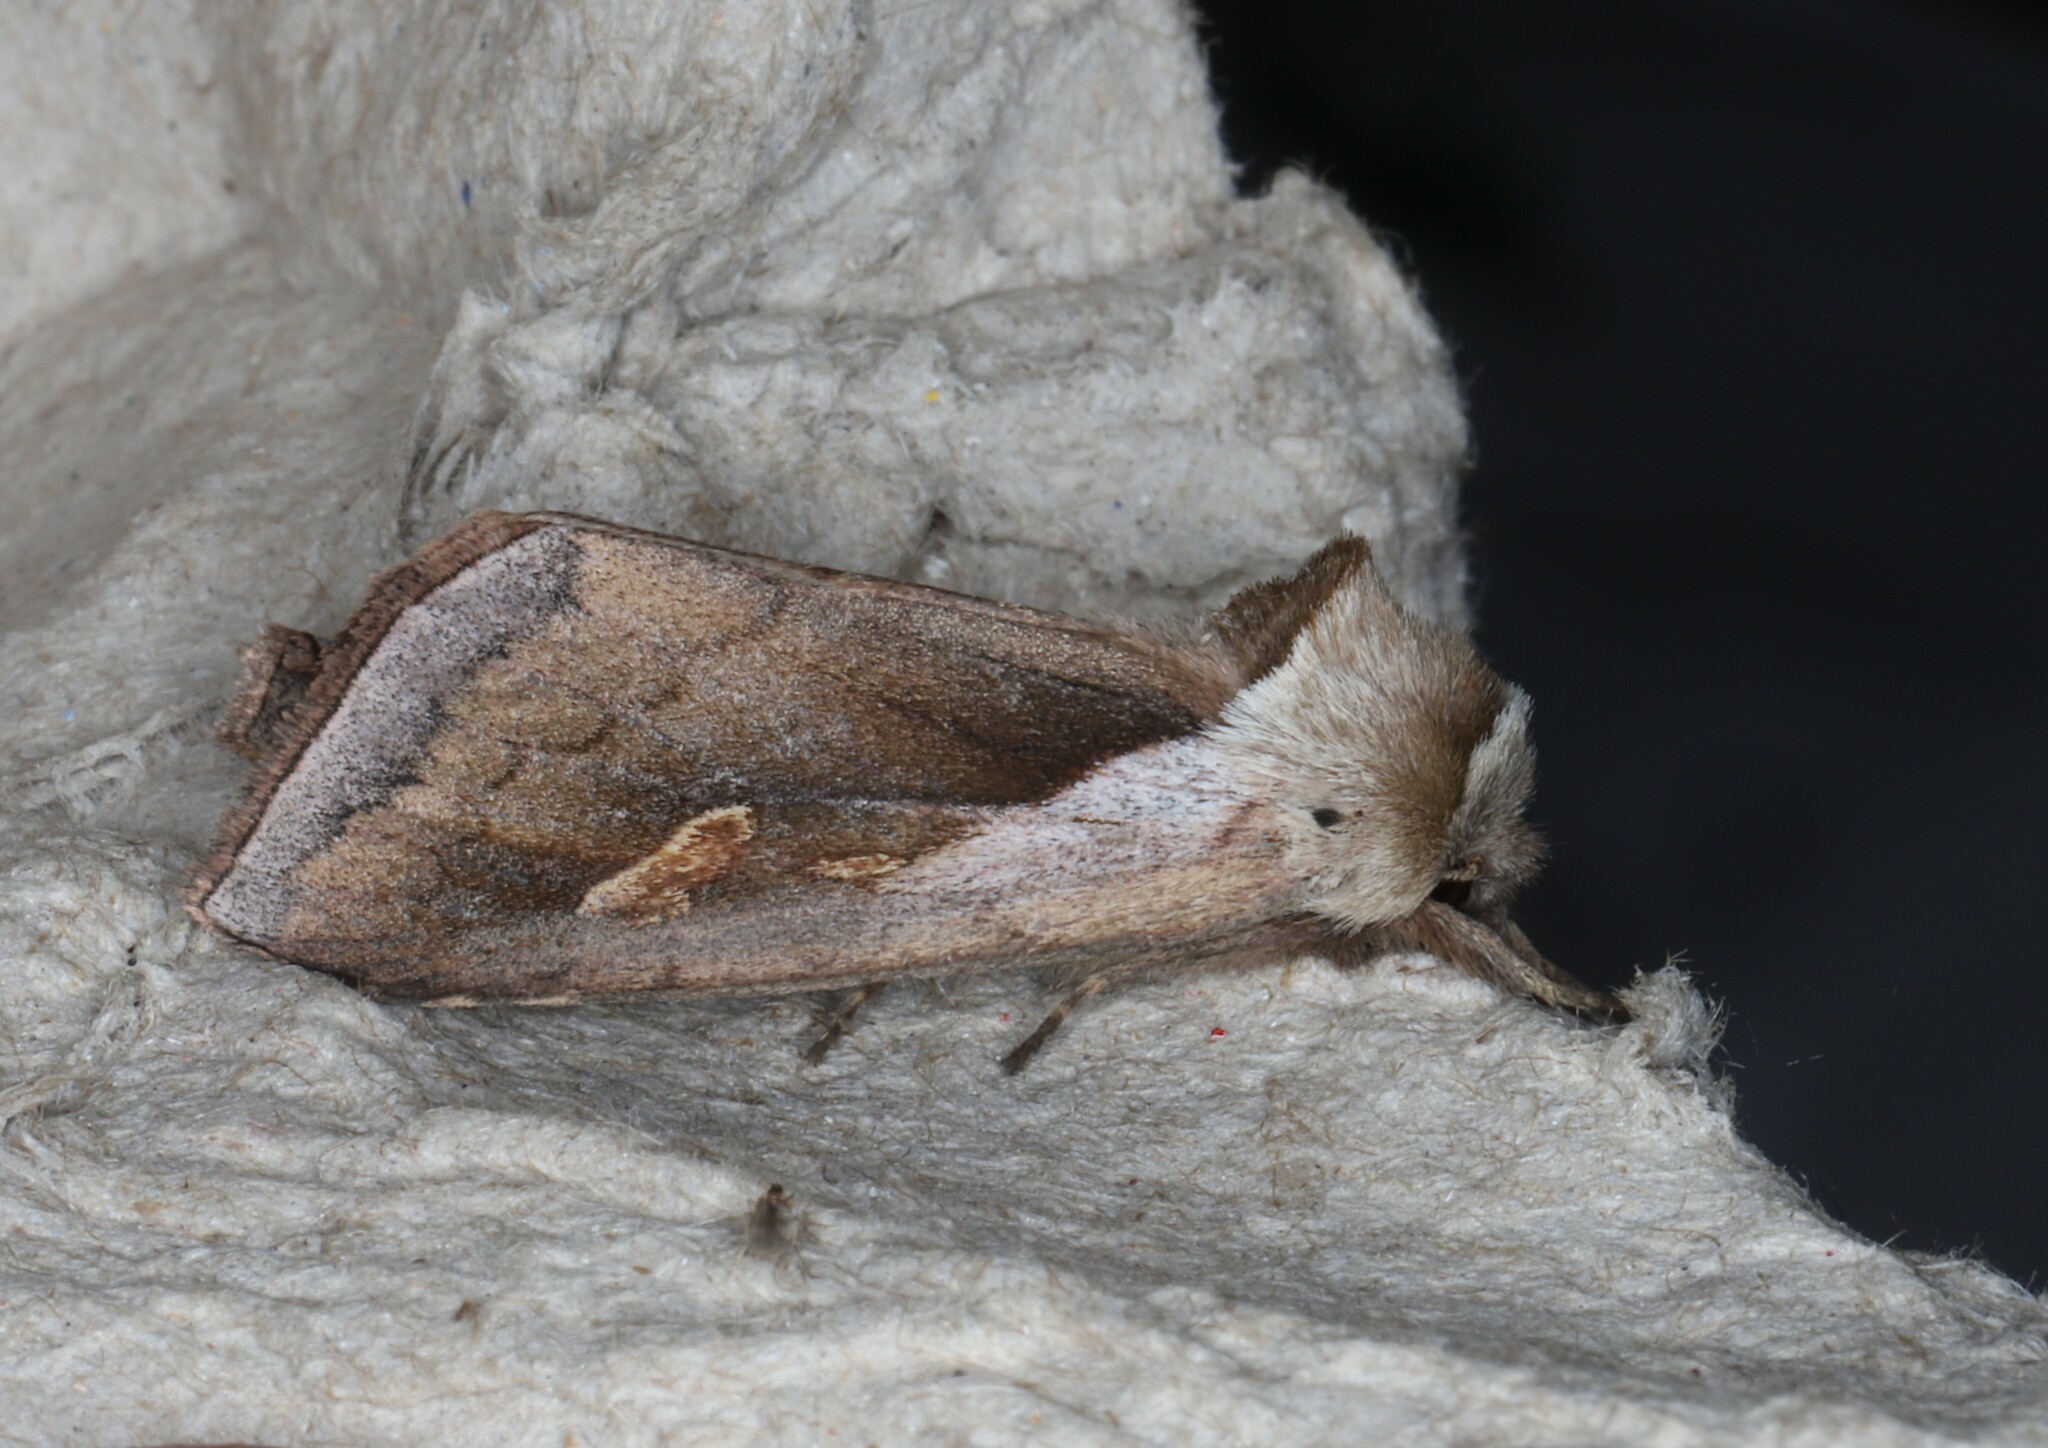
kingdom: Animalia
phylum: Arthropoda
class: Insecta
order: Lepidoptera
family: Noctuidae
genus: Bellura
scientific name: Bellura obliqua
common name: Cattail borer moth
